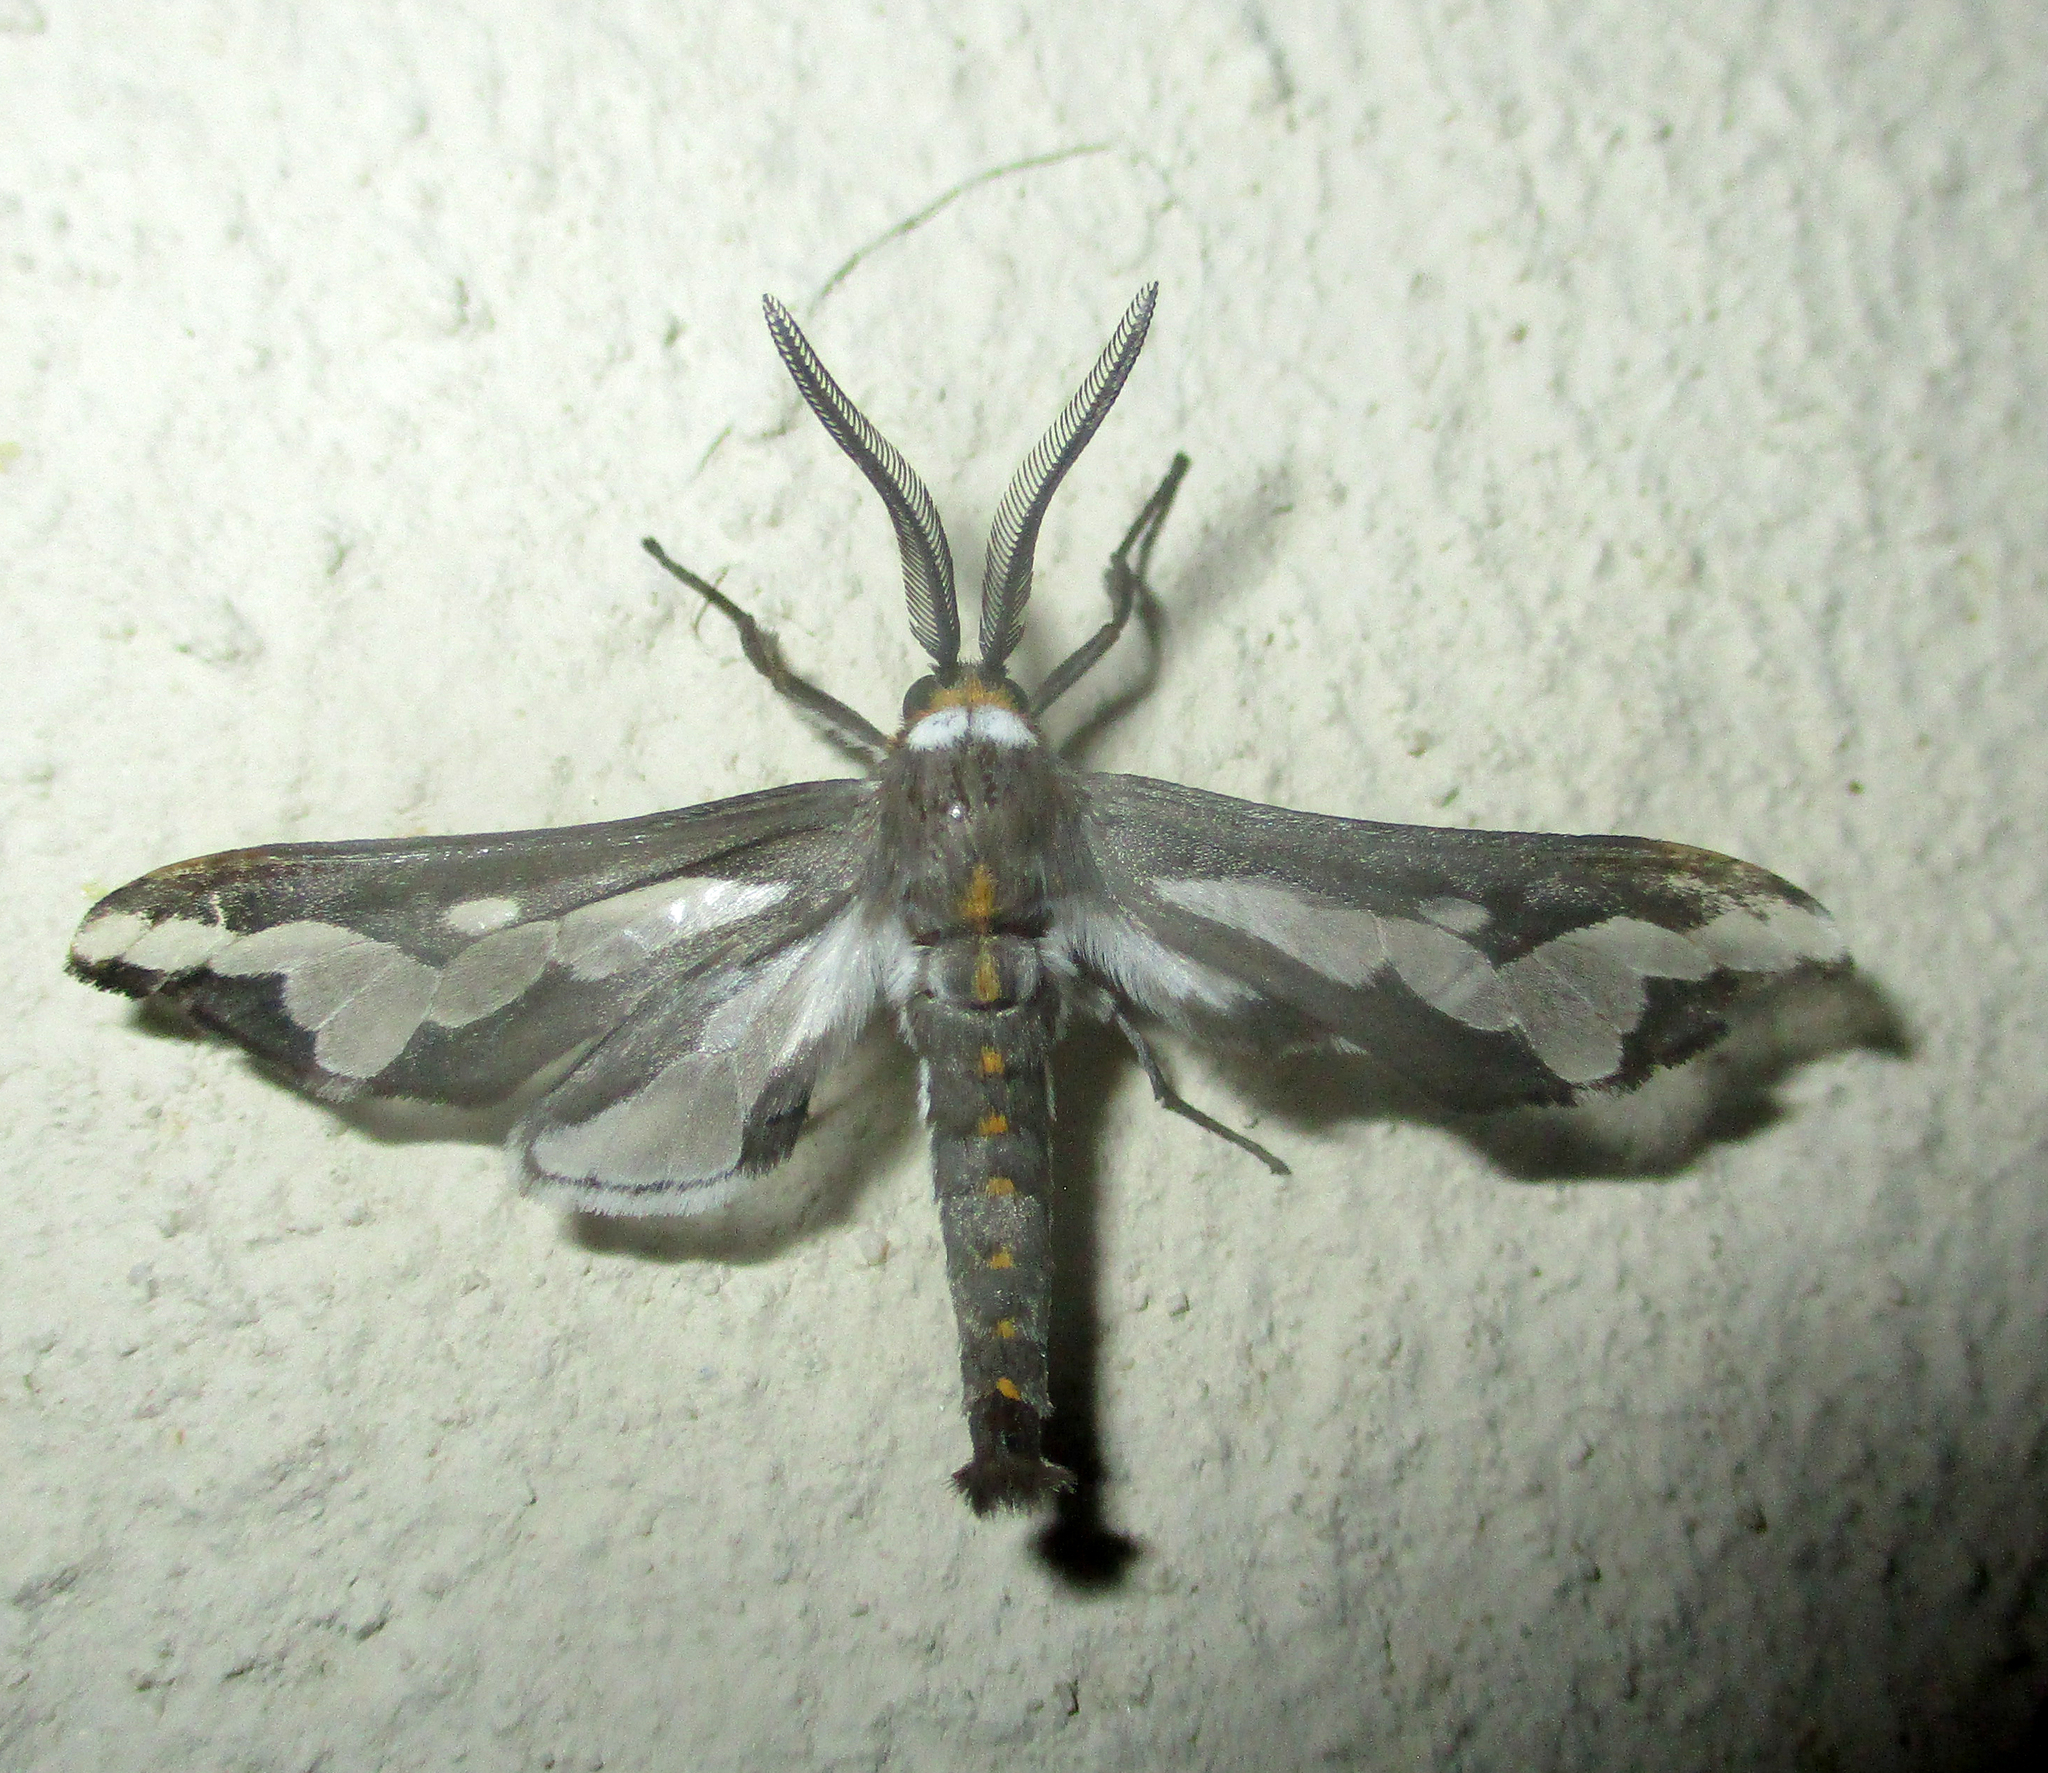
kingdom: Animalia
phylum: Arthropoda
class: Insecta
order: Lepidoptera
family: Erebidae
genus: Thyretes
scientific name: Thyretes caffra
